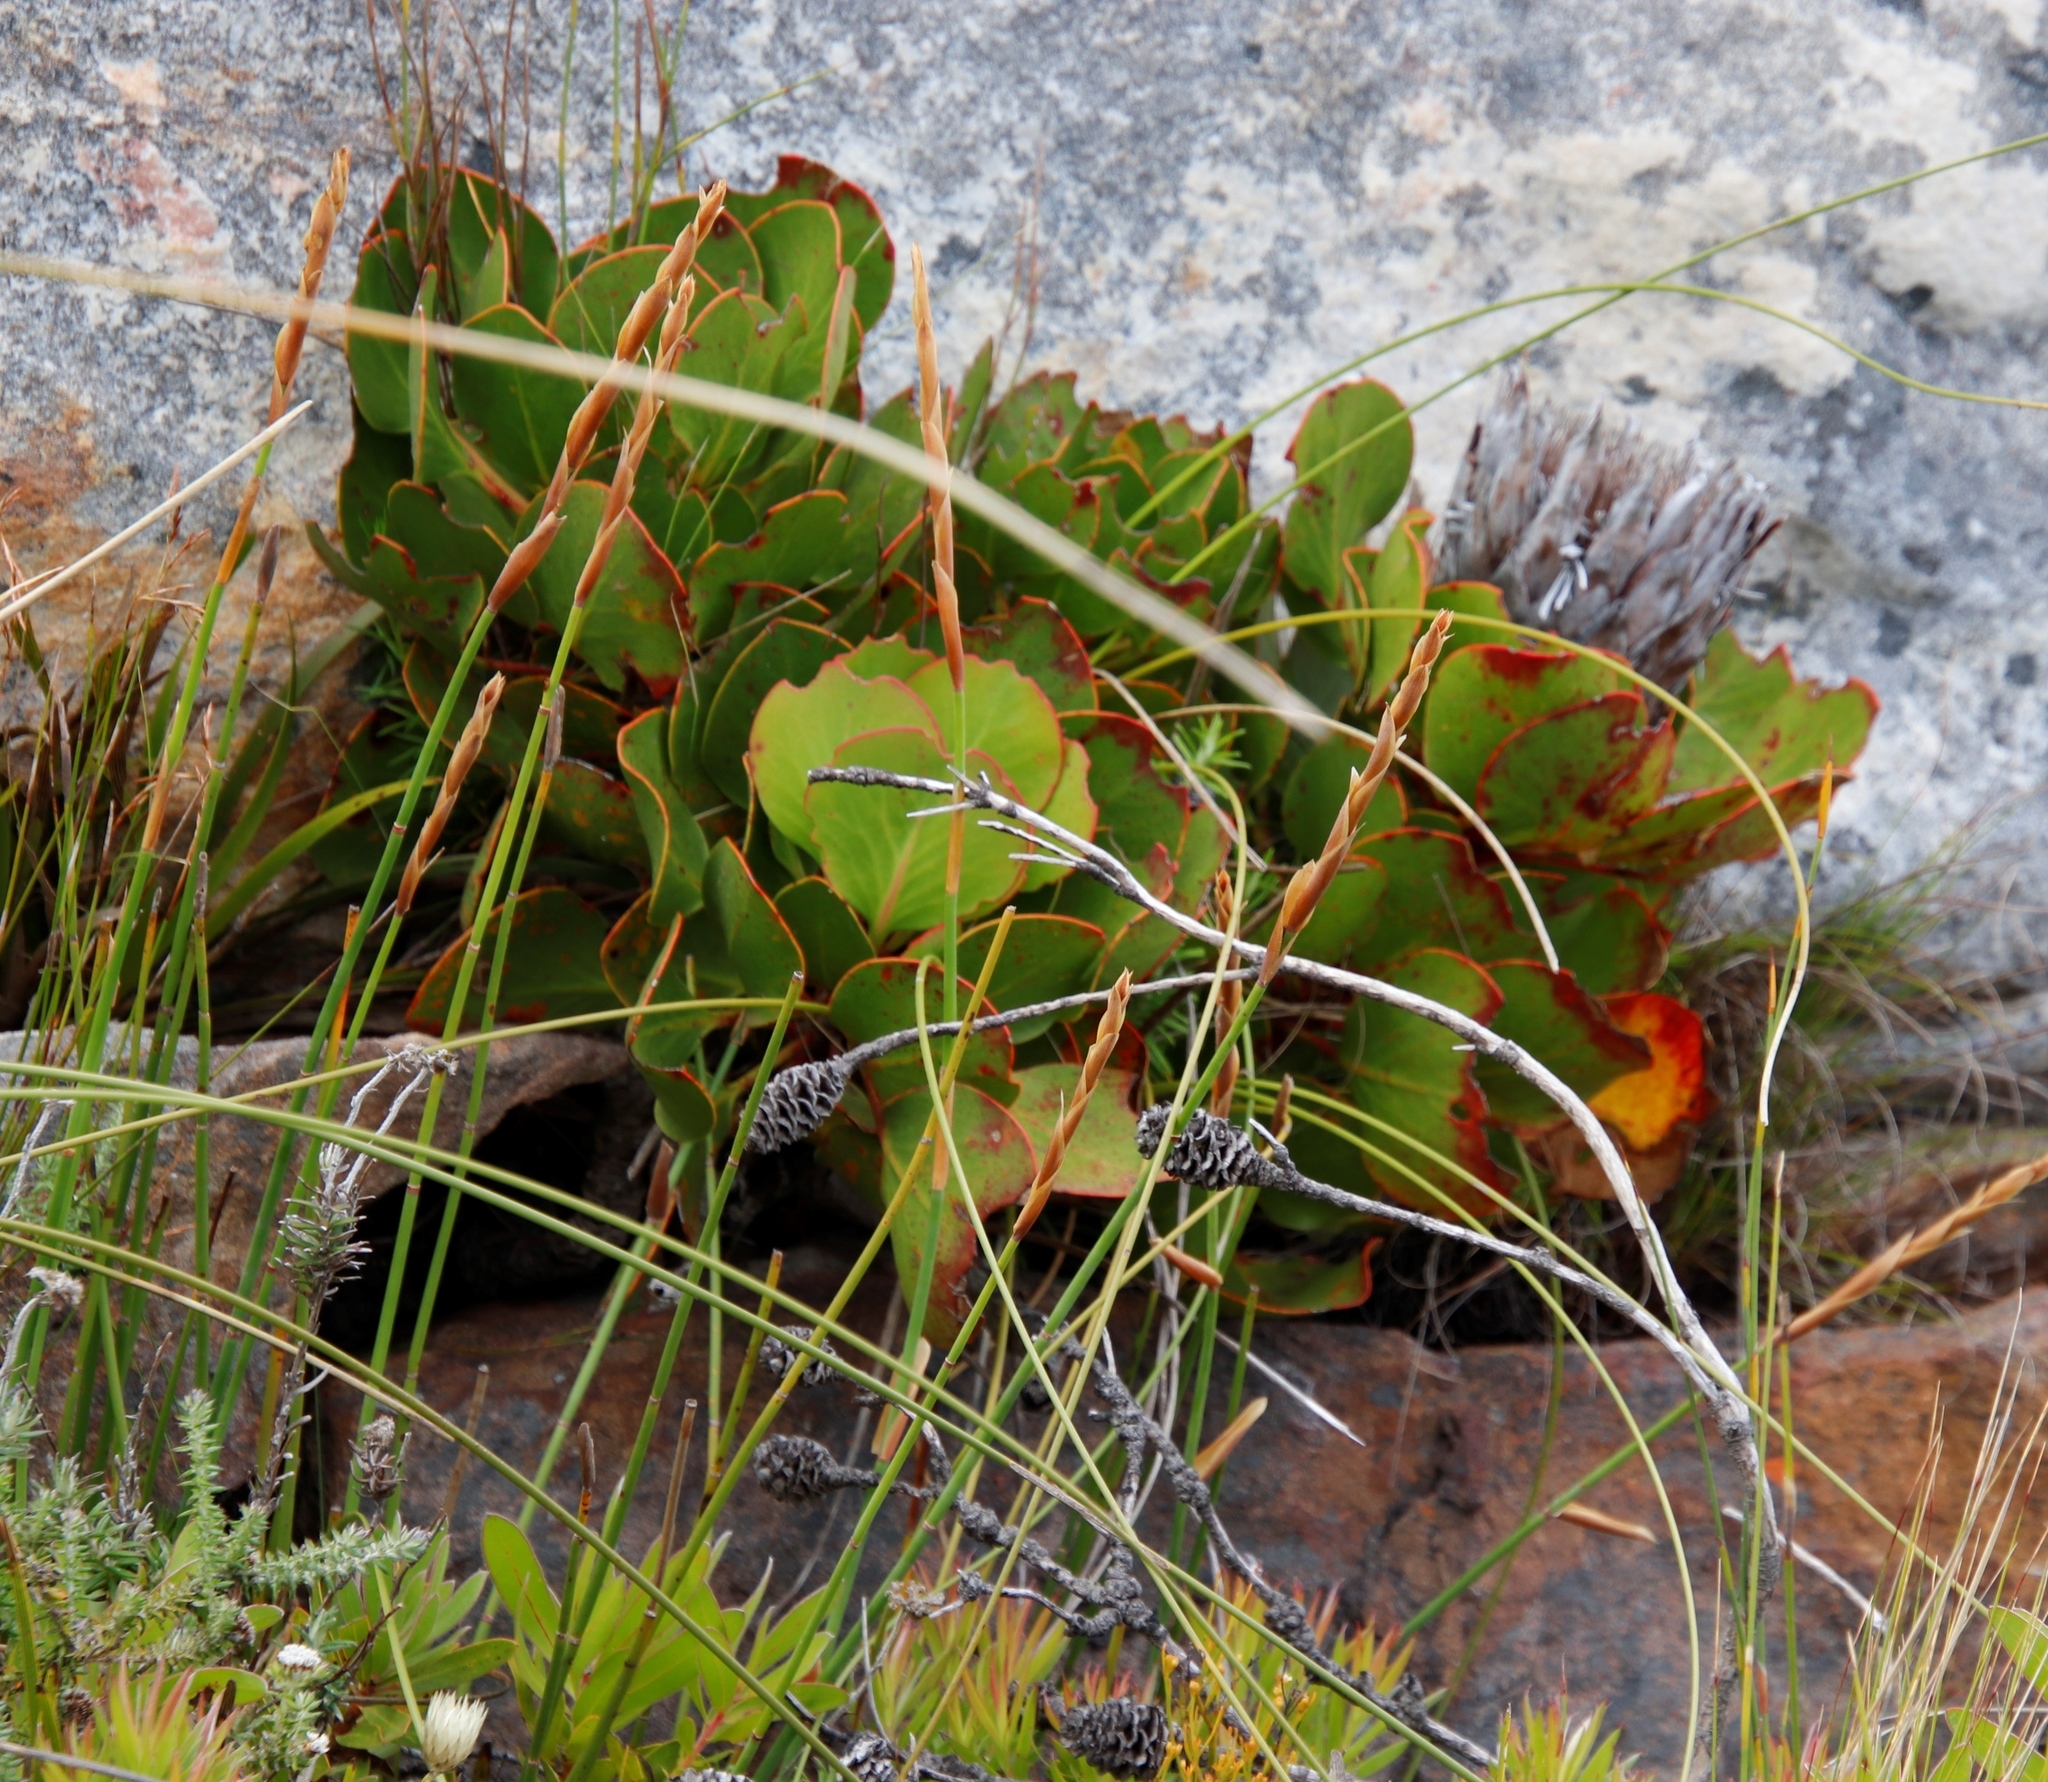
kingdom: Plantae
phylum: Tracheophyta
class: Magnoliopsida
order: Proteales
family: Proteaceae
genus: Protea
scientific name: Protea cynaroides
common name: King protea
